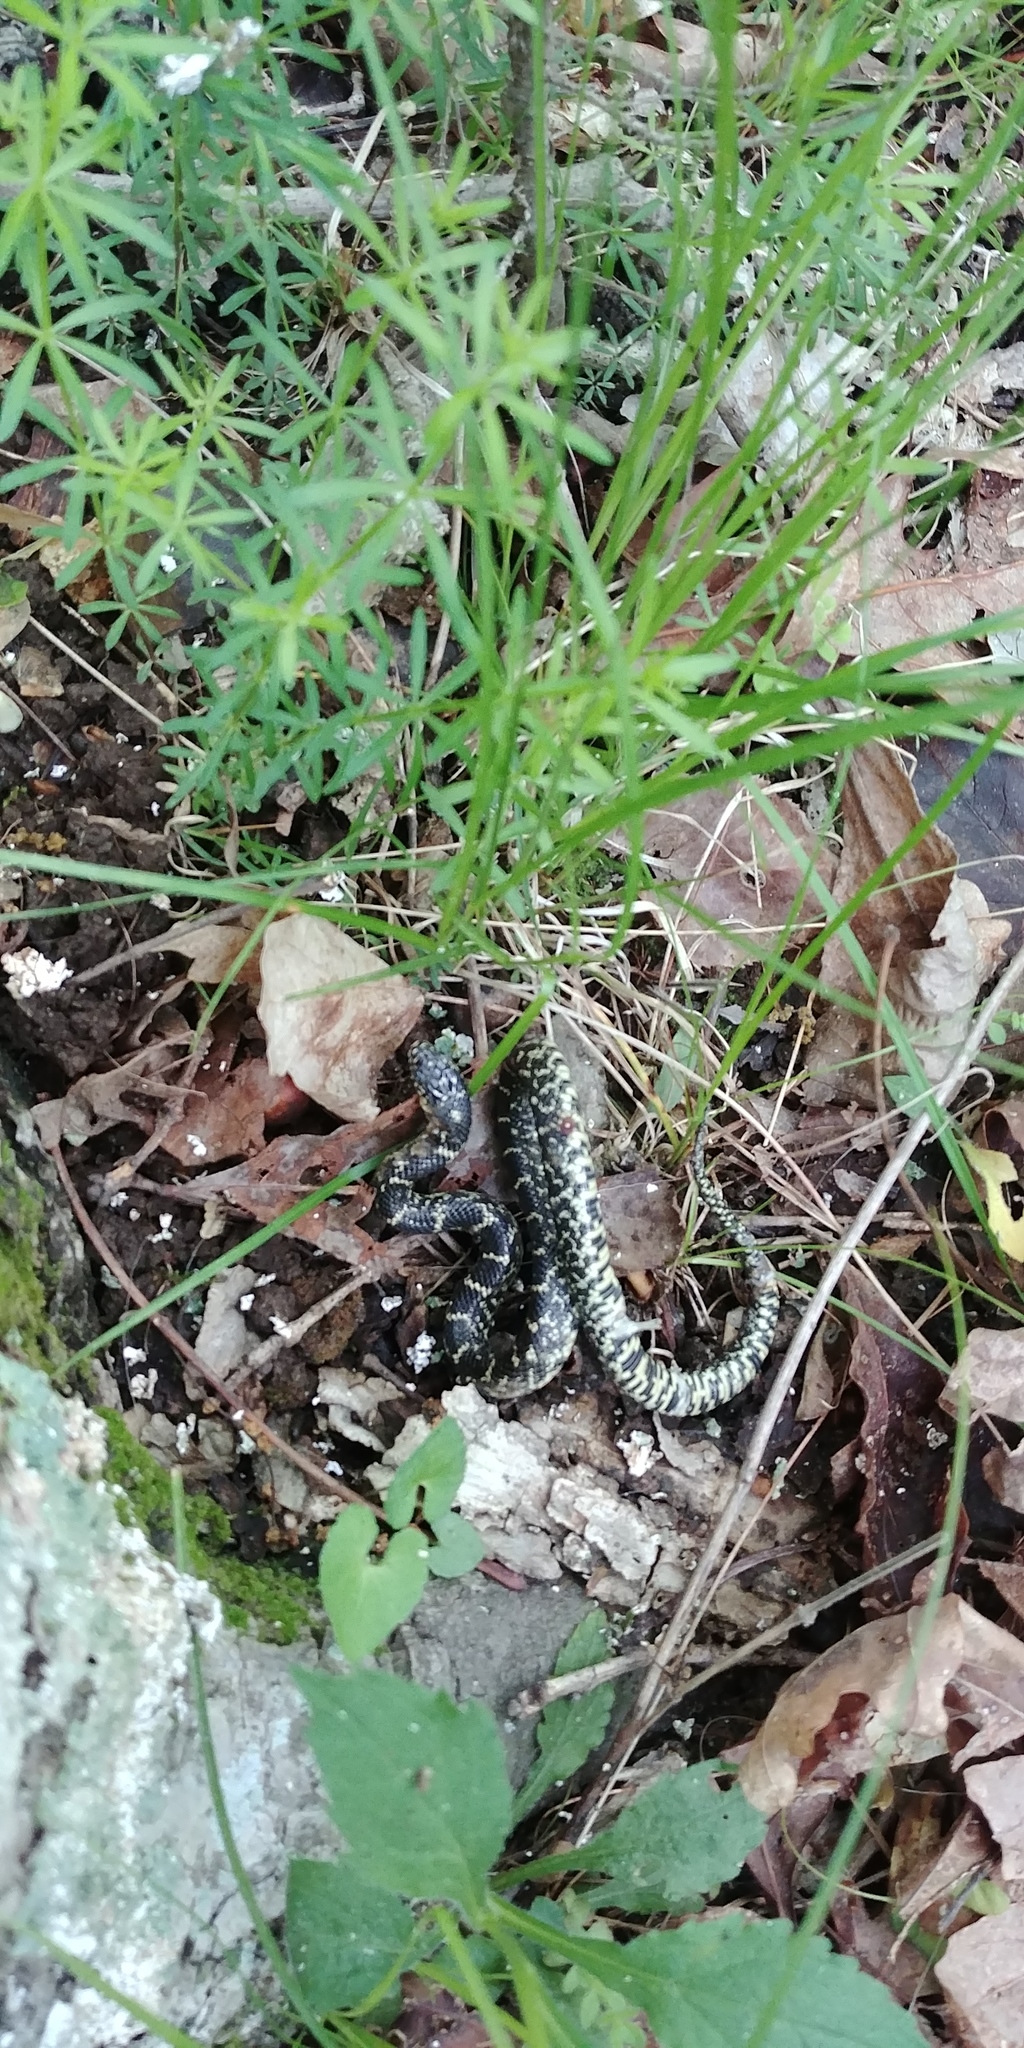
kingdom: Animalia
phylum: Chordata
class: Squamata
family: Colubridae
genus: Lampropeltis
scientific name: Lampropeltis nigra
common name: Black kingsnake
